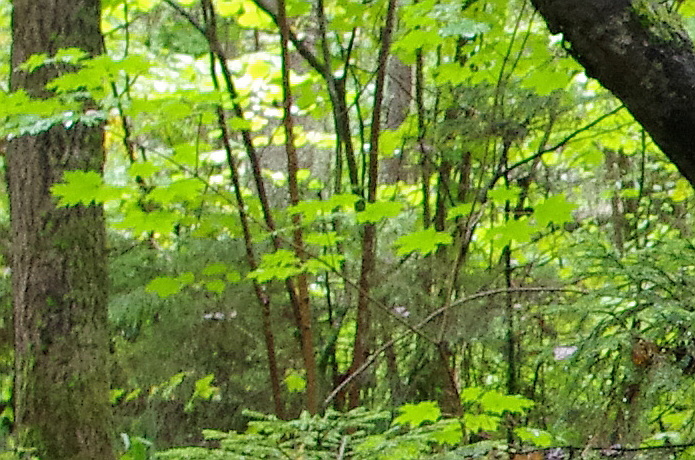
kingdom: Plantae
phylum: Tracheophyta
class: Magnoliopsida
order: Sapindales
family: Sapindaceae
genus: Acer
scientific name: Acer platanoides
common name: Norway maple
